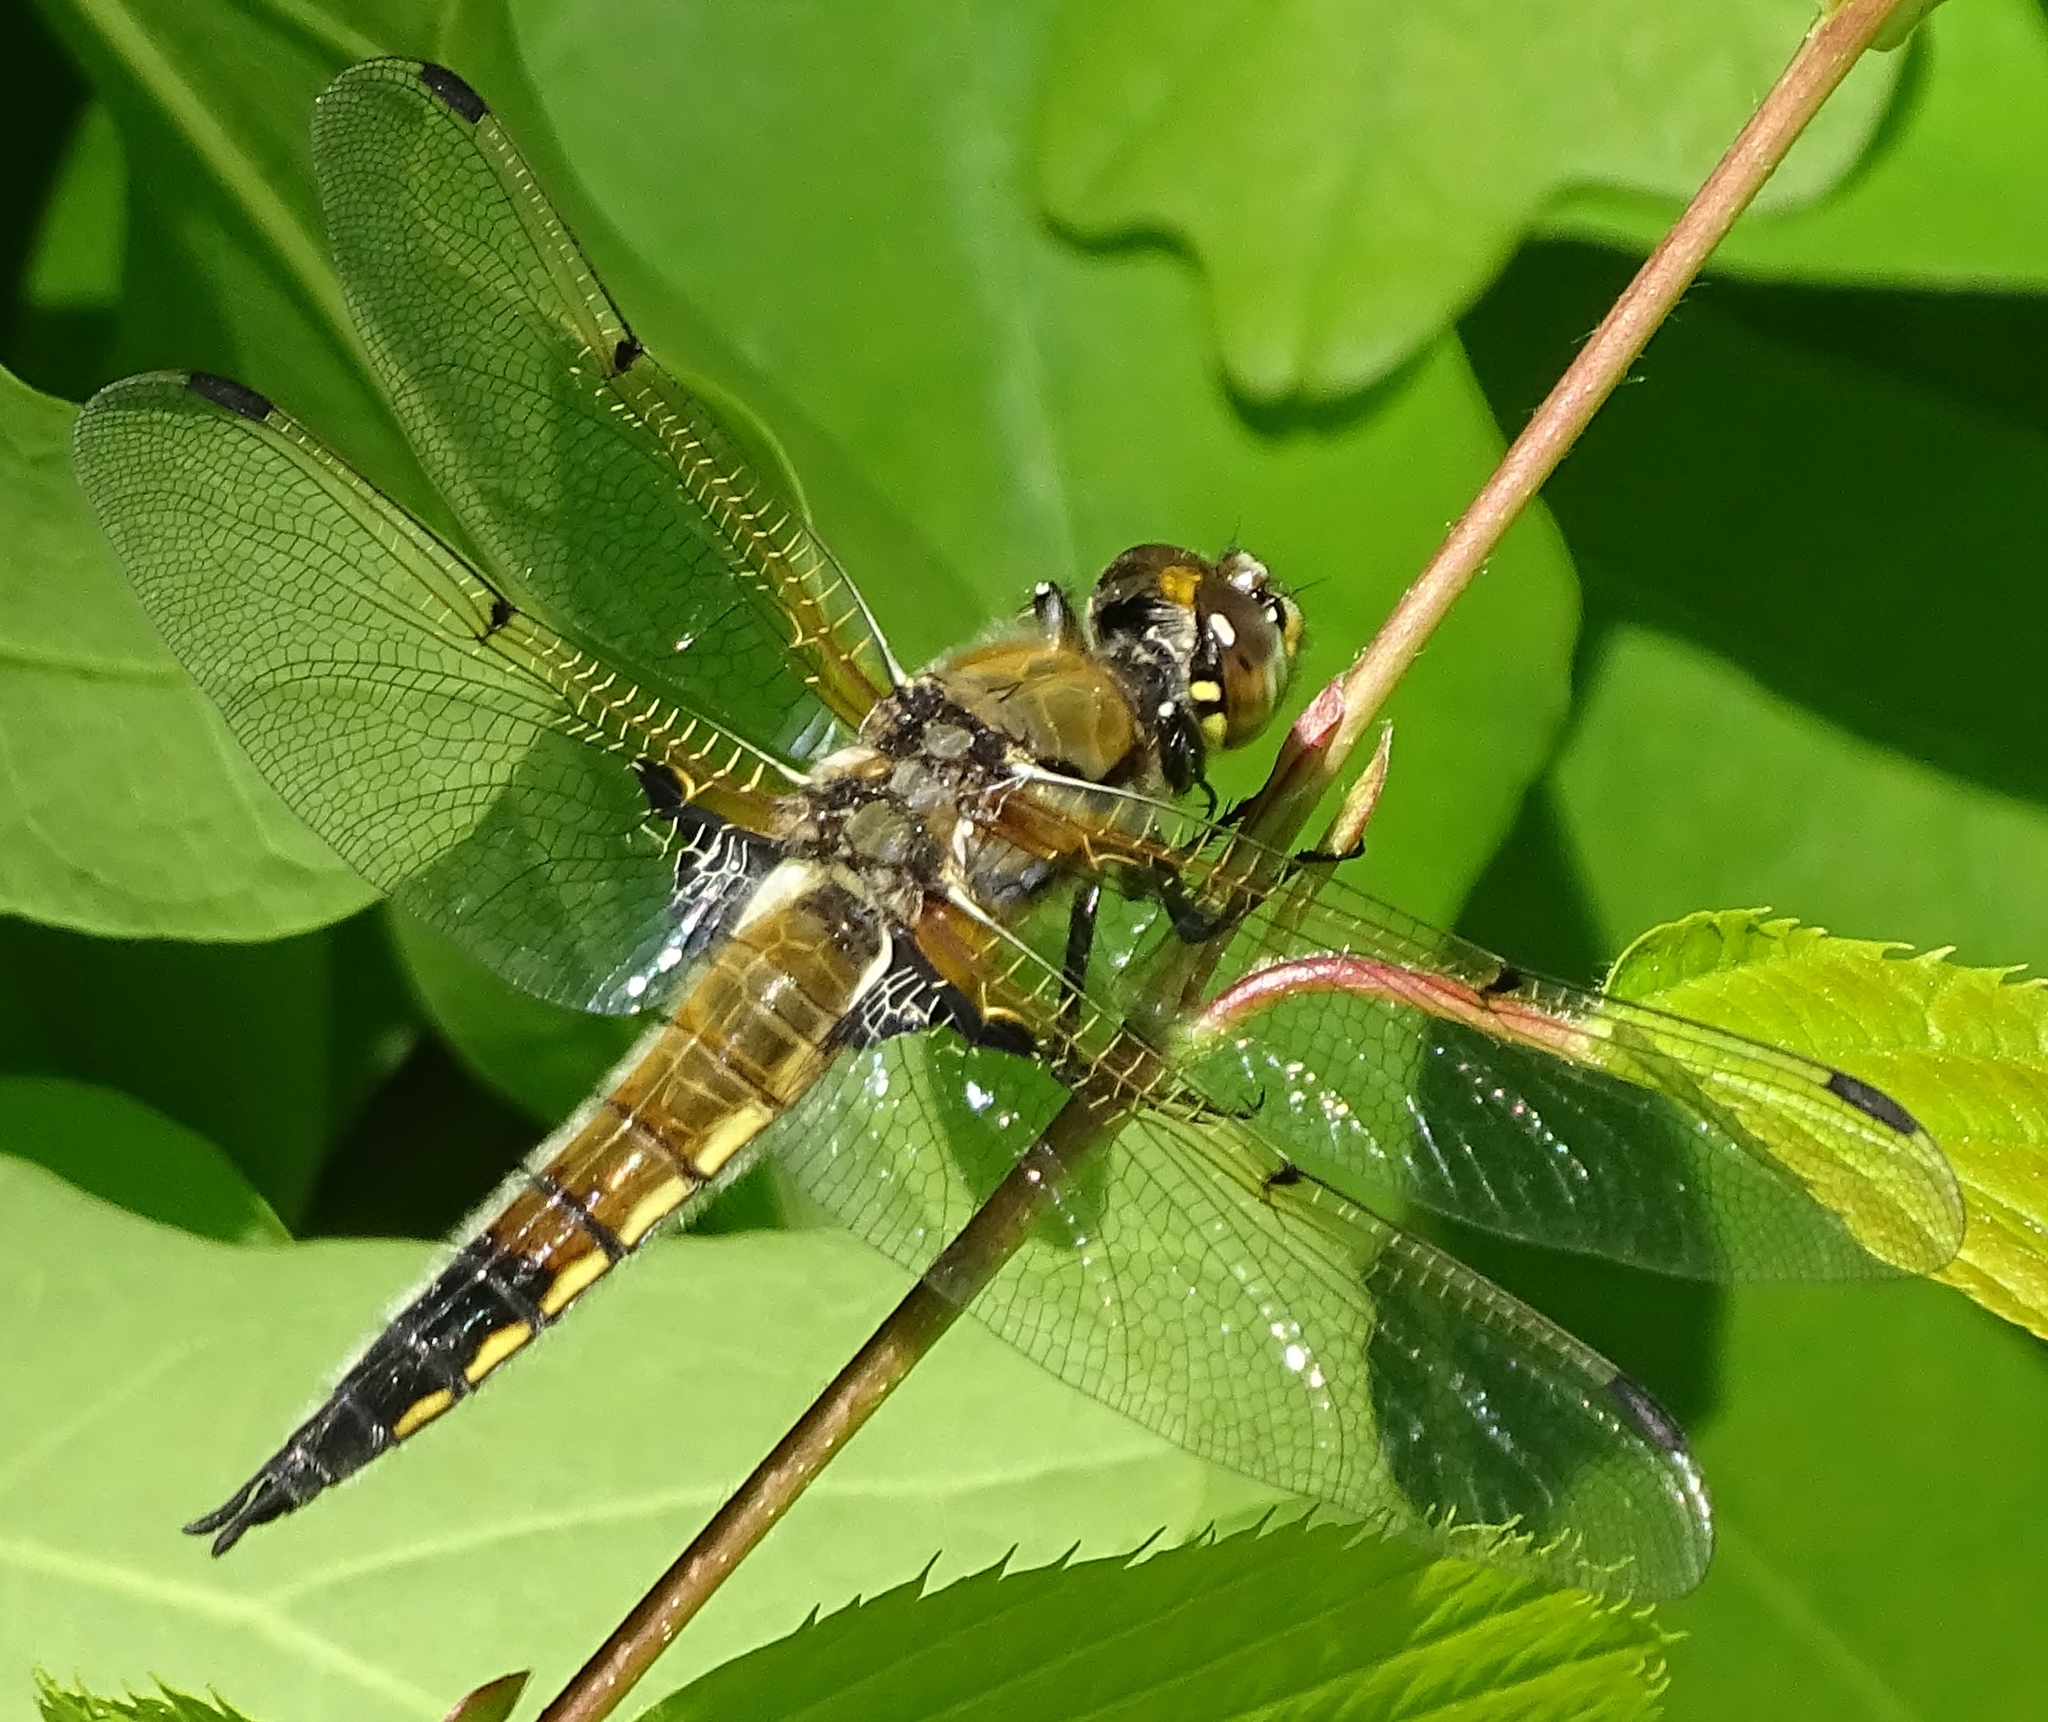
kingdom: Animalia
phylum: Arthropoda
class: Insecta
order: Odonata
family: Libellulidae
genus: Libellula
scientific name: Libellula quadrimaculata
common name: Four-spotted chaser
